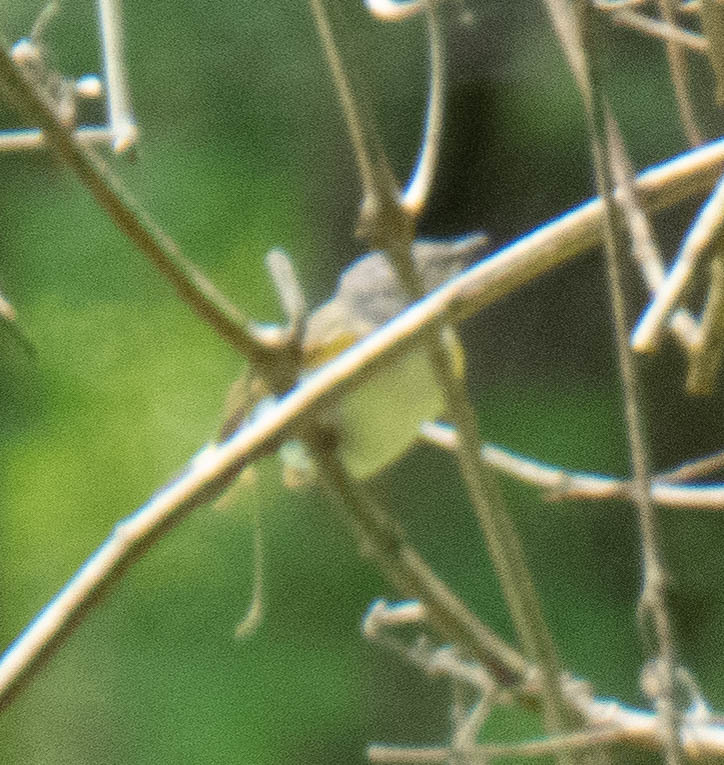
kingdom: Animalia
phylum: Chordata
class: Aves
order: Passeriformes
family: Parulidae
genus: Setophaga
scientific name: Setophaga ruticilla
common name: American redstart
